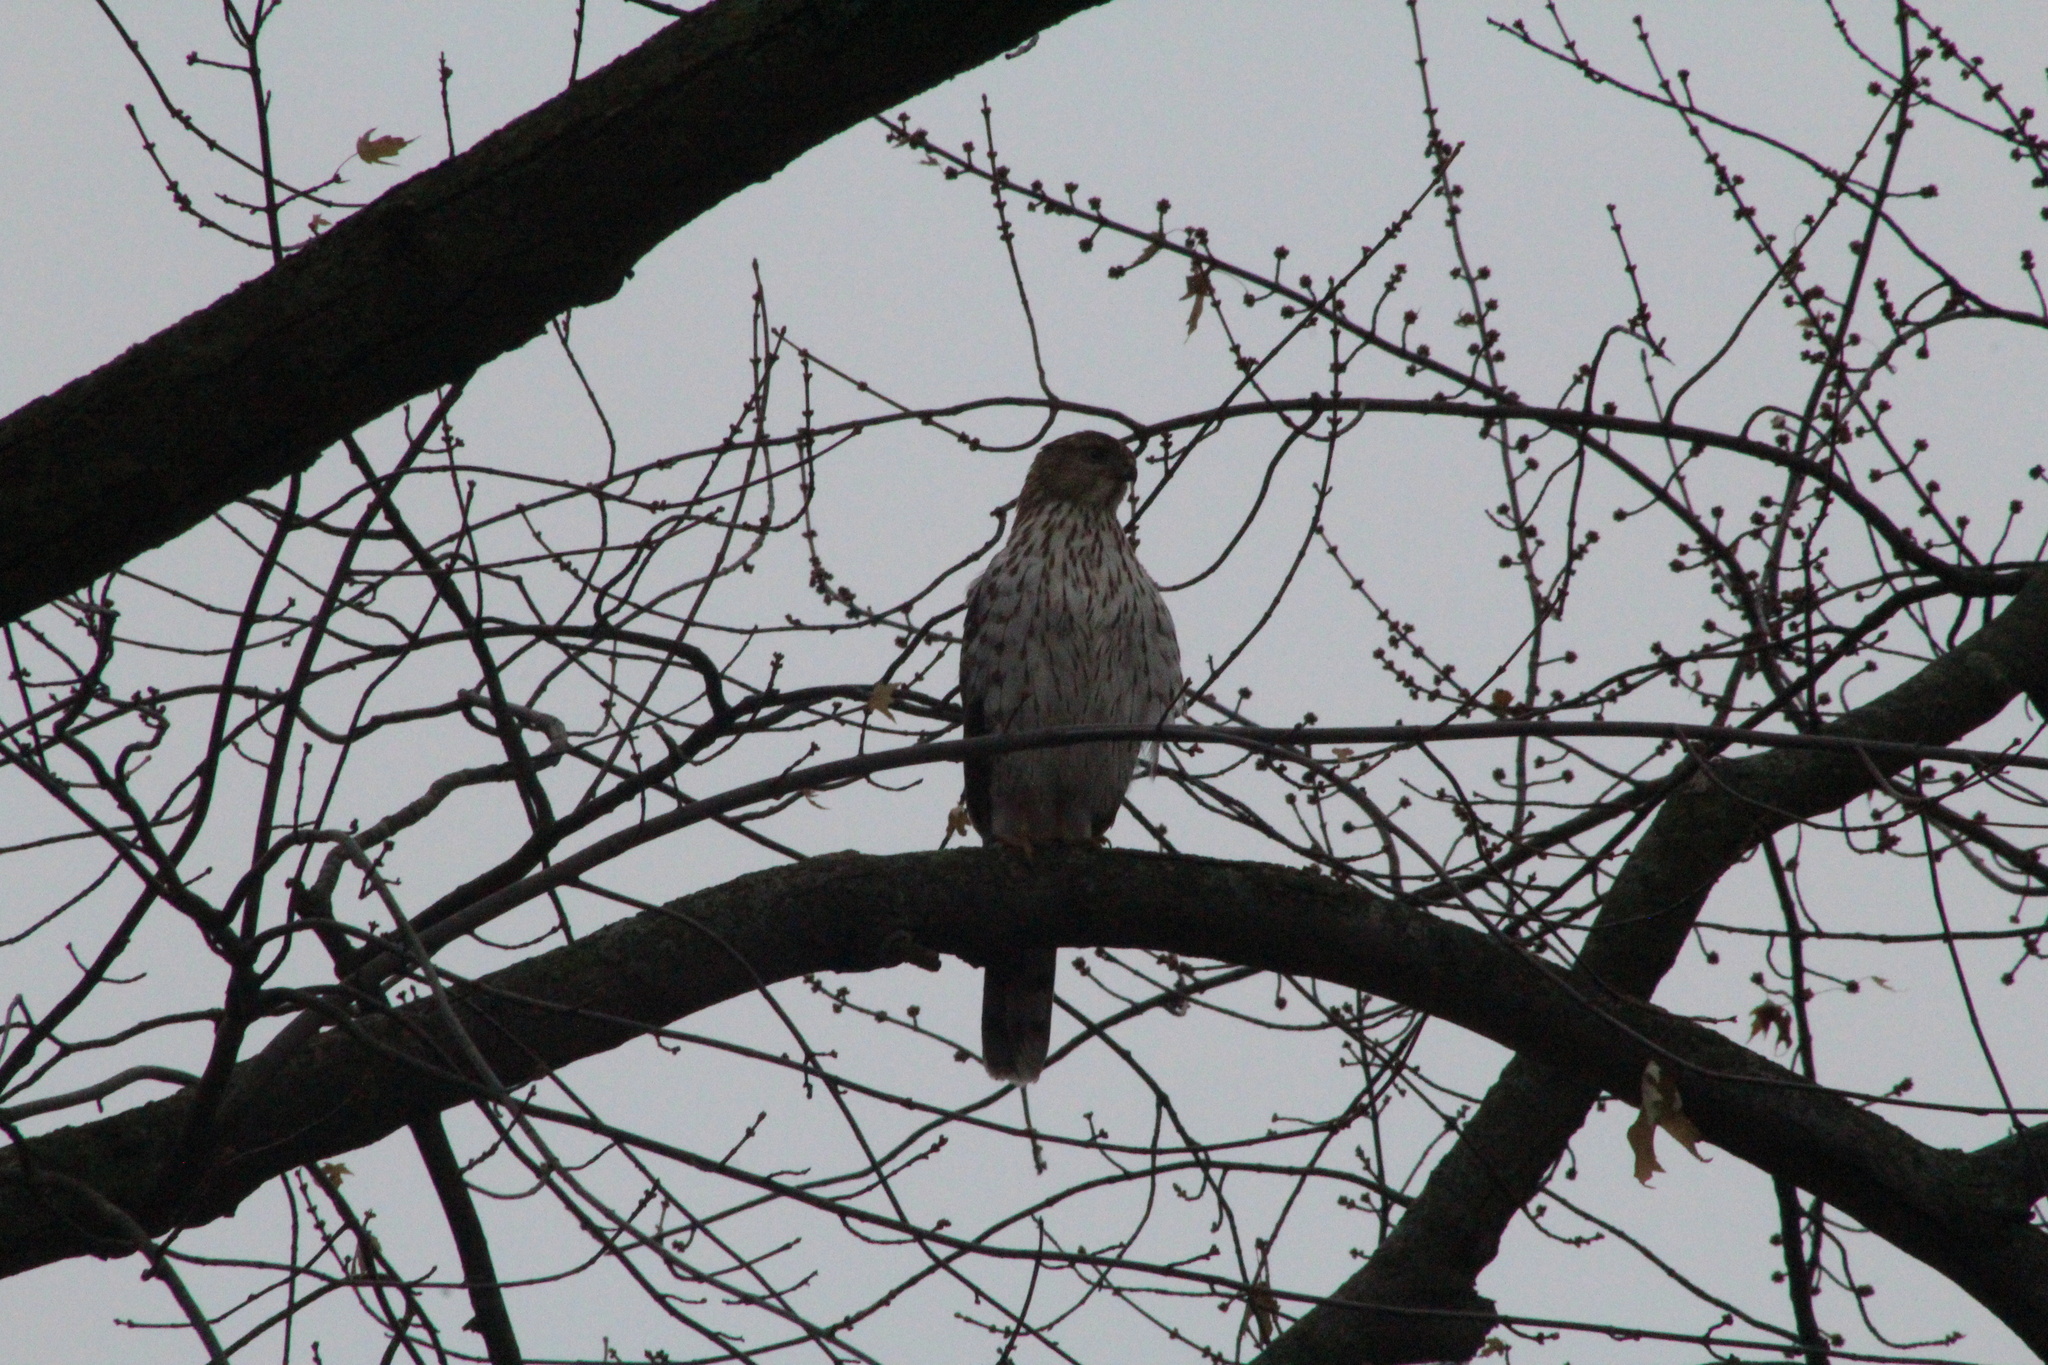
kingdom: Animalia
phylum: Chordata
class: Aves
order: Accipitriformes
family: Accipitridae
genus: Accipiter
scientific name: Accipiter cooperii
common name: Cooper's hawk
